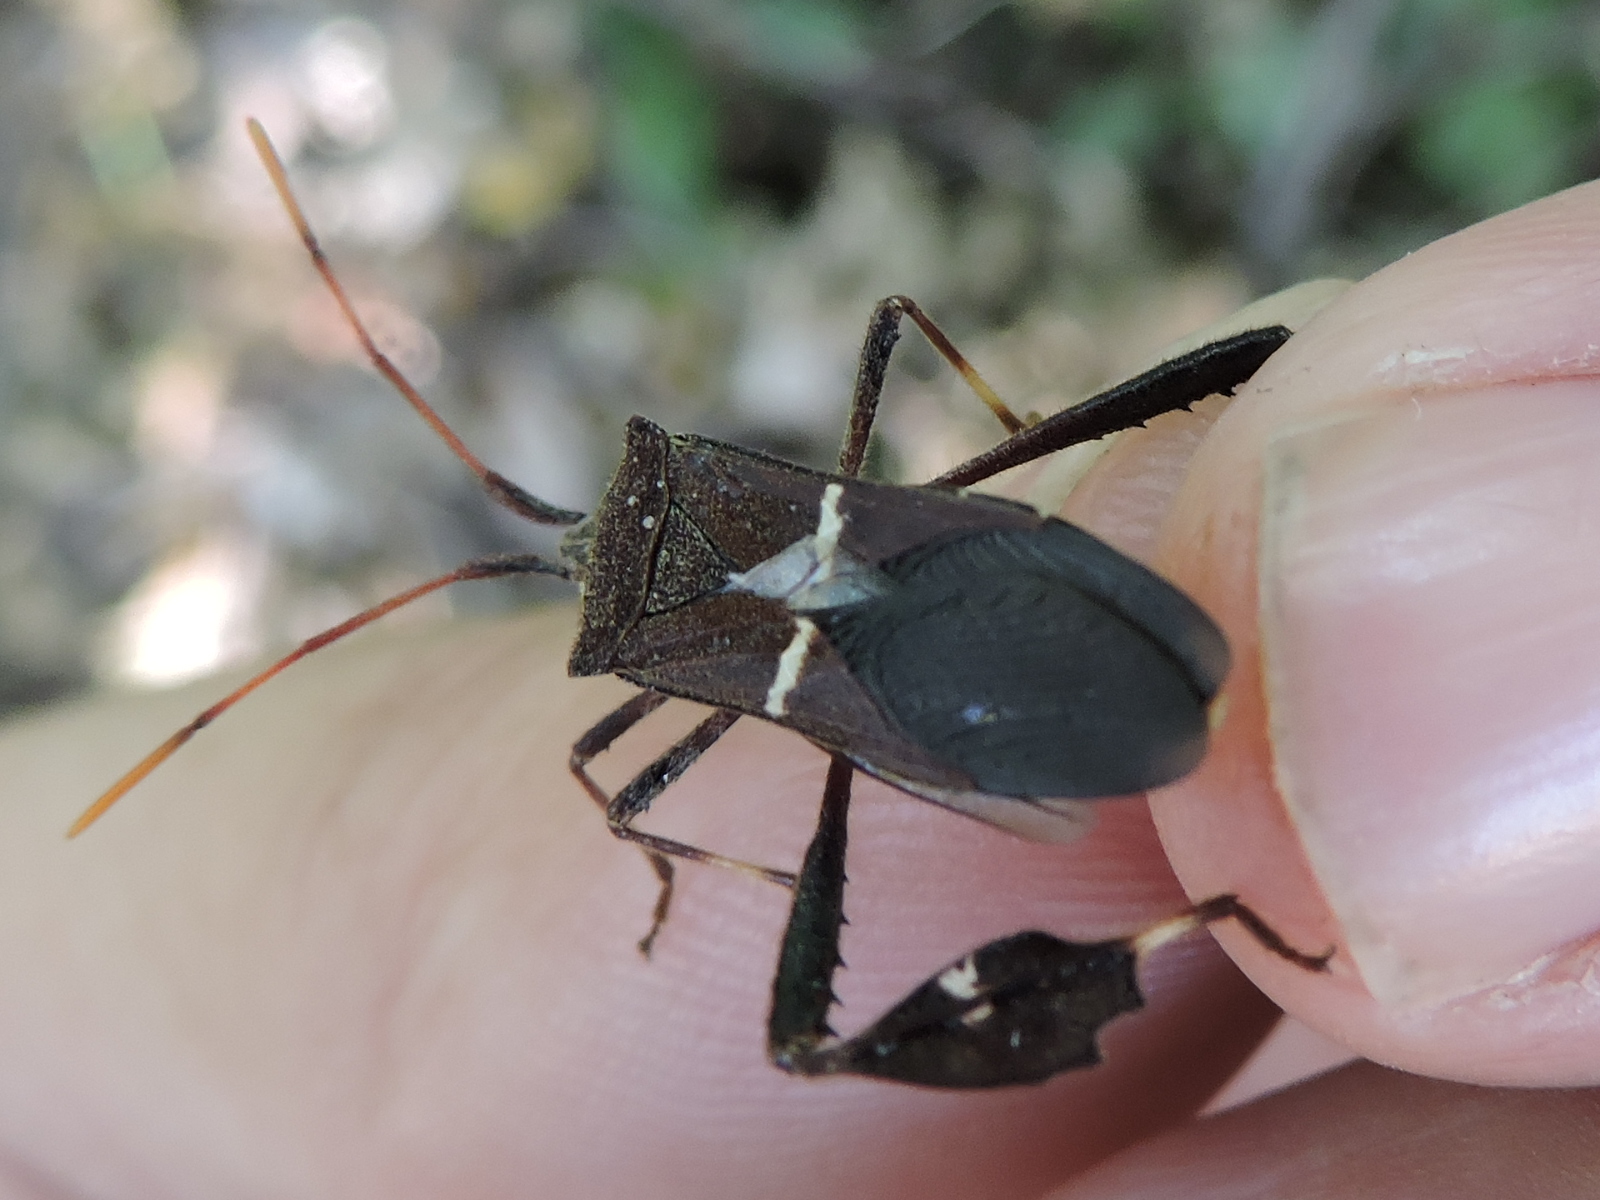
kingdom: Animalia
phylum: Arthropoda
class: Insecta
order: Hemiptera
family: Coreidae
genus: Leptoglossus
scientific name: Leptoglossus phyllopus
